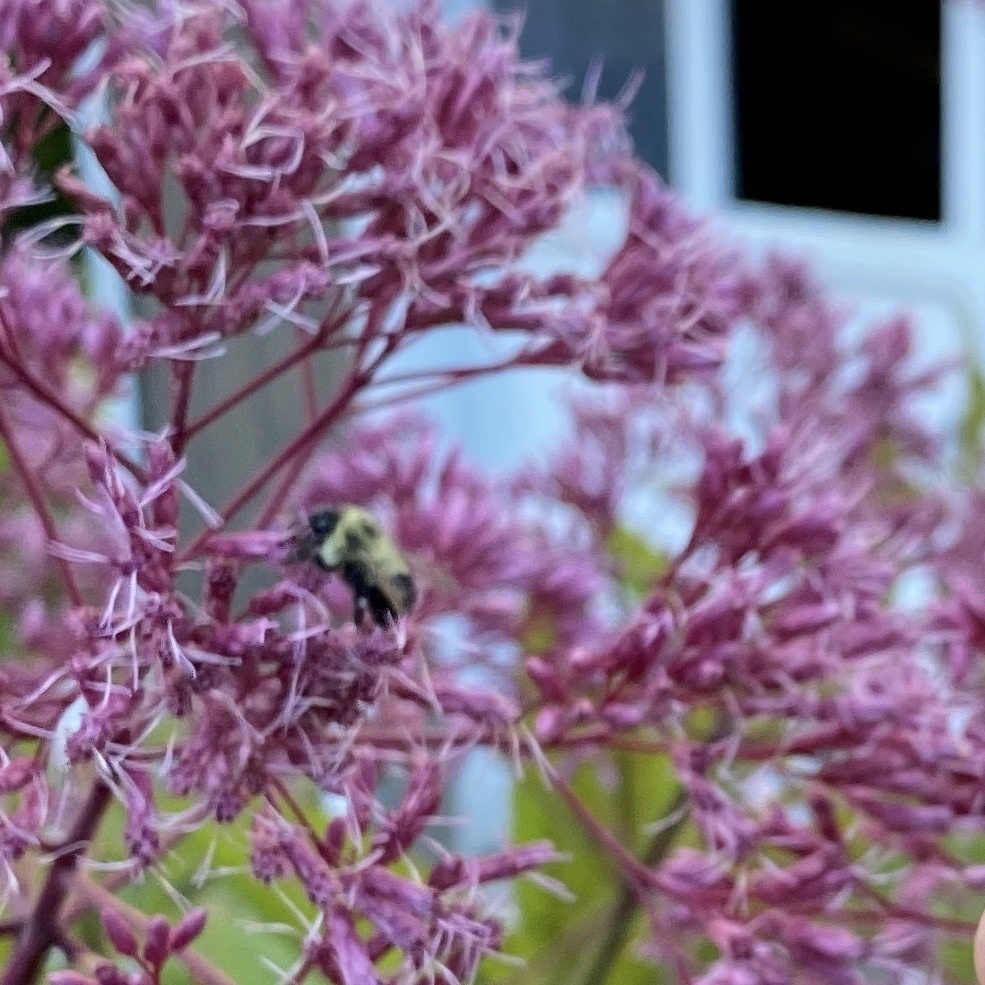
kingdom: Animalia
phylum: Arthropoda
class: Insecta
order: Hymenoptera
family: Apidae
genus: Pyrobombus
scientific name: Pyrobombus
